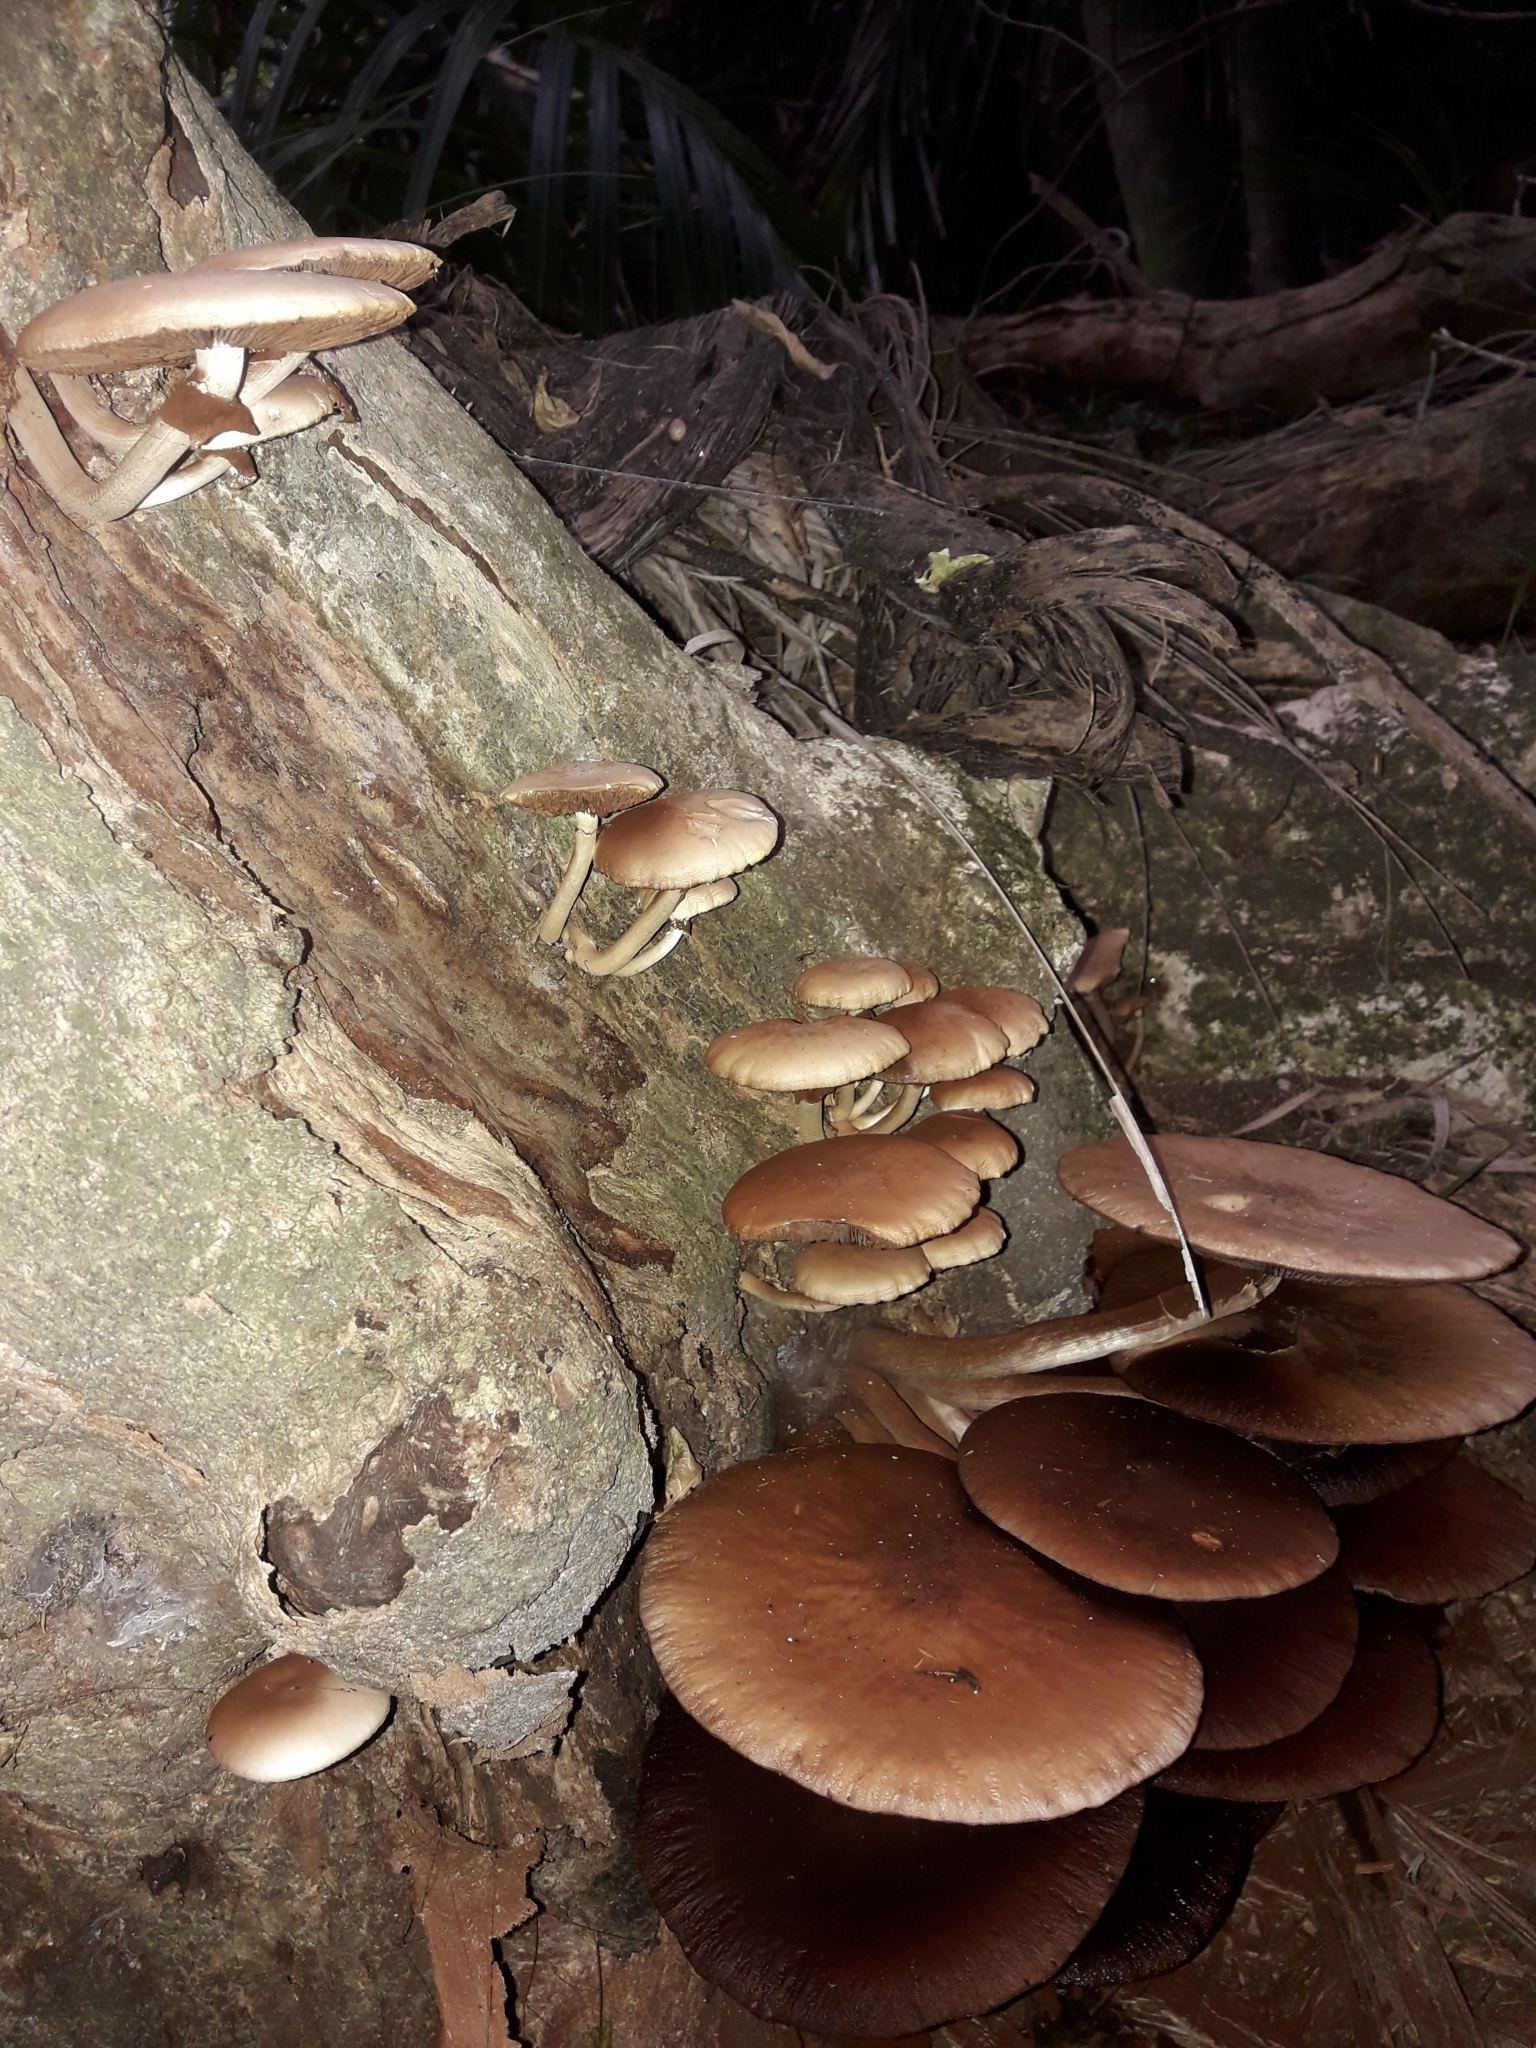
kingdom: Fungi
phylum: Basidiomycota
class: Agaricomycetes
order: Agaricales
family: Tubariaceae
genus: Cyclocybe
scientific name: Cyclocybe parasitica
